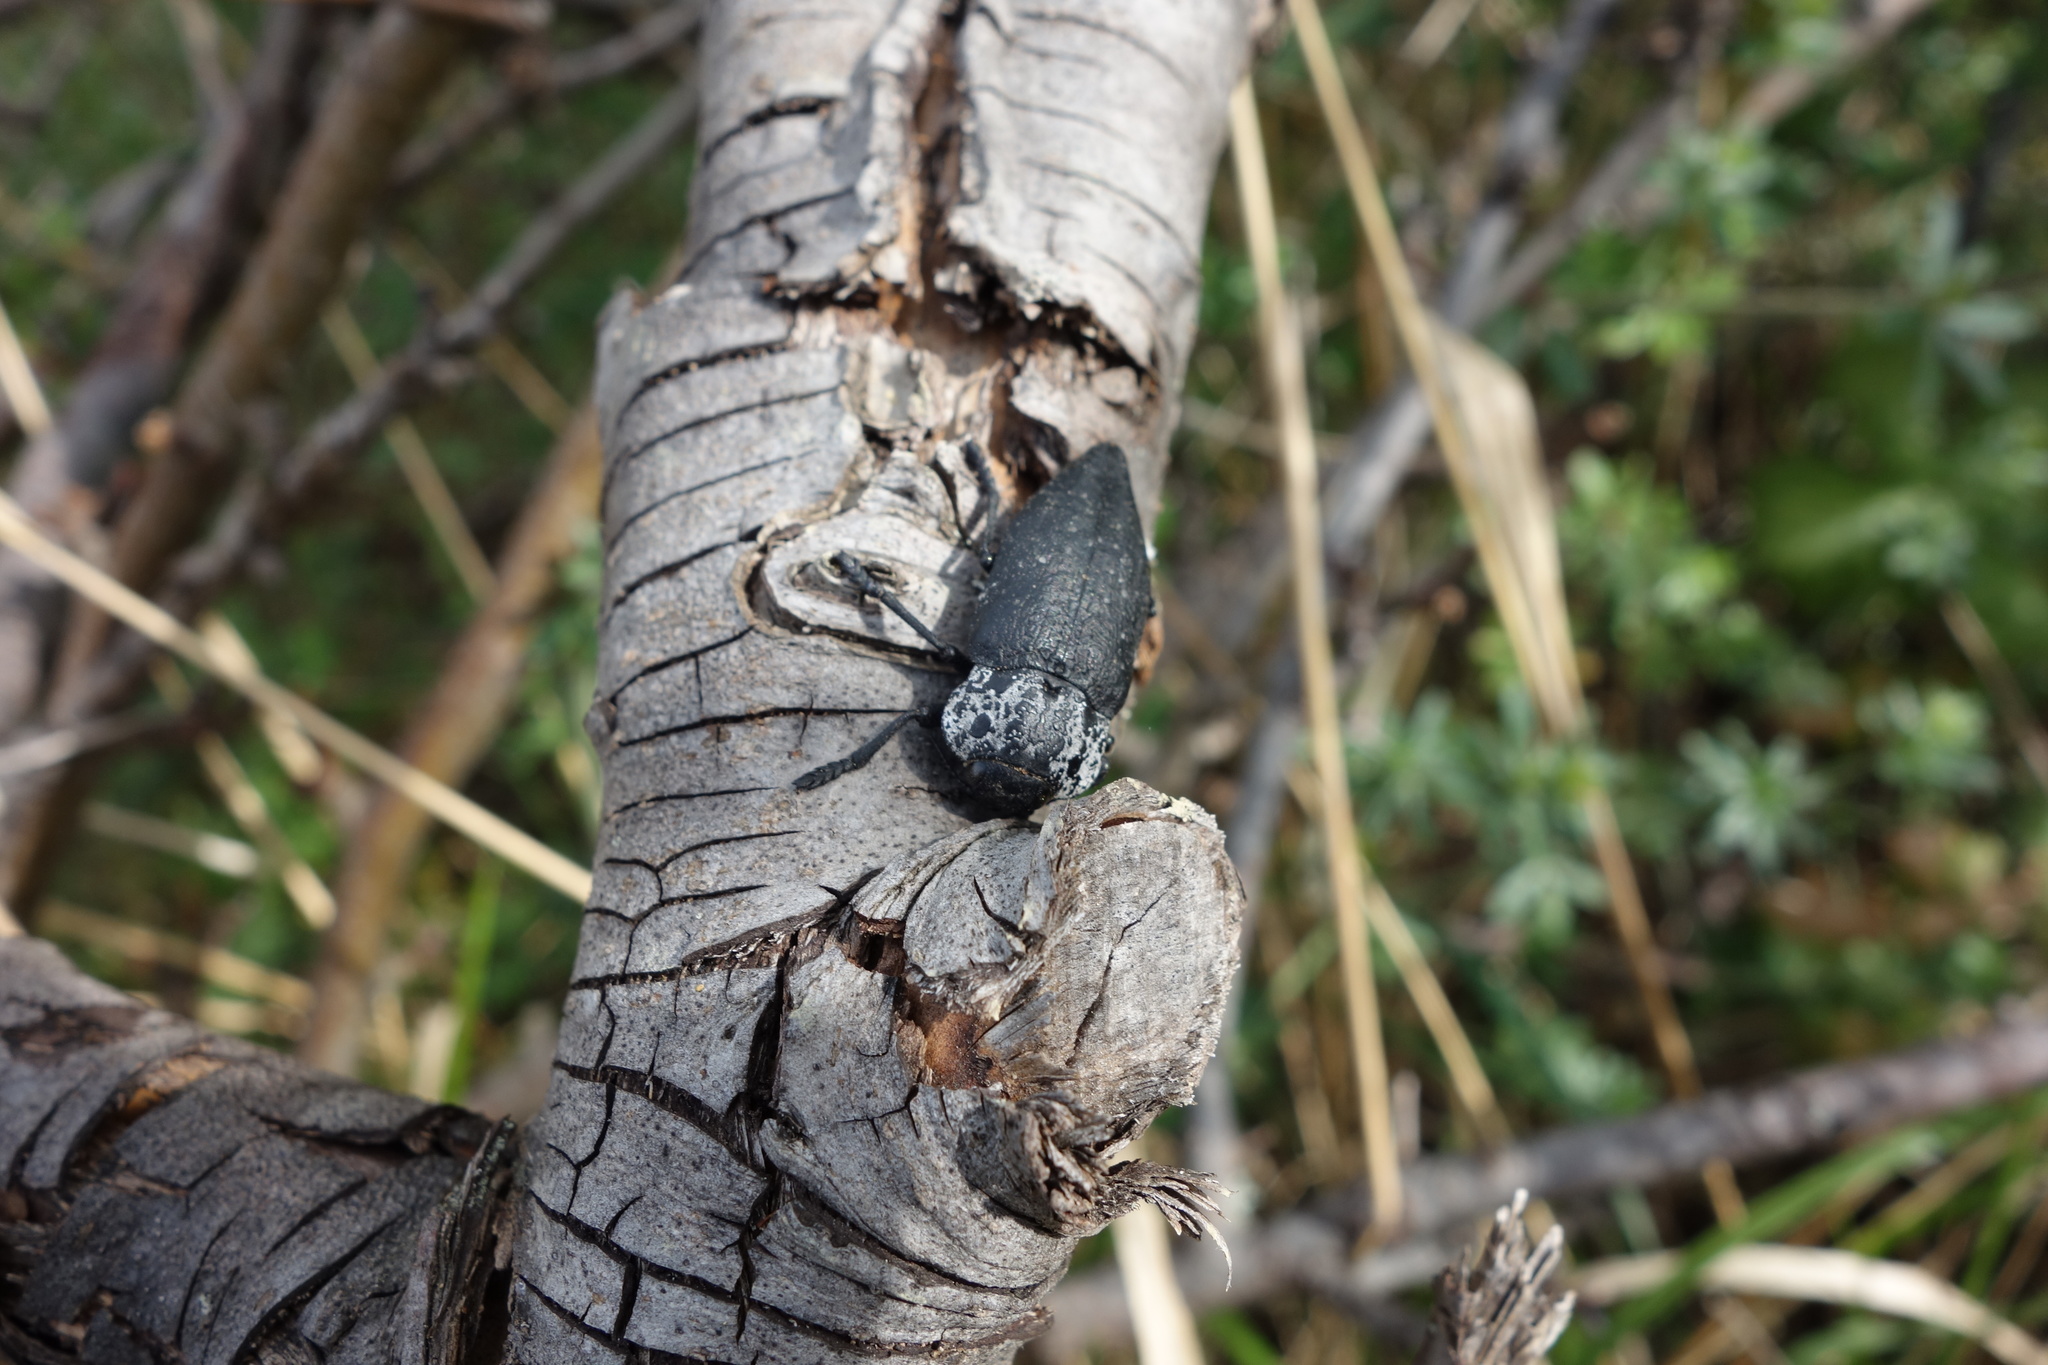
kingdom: Animalia
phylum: Arthropoda
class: Insecta
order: Coleoptera
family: Buprestidae
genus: Capnodis
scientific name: Capnodis tenebrionis
